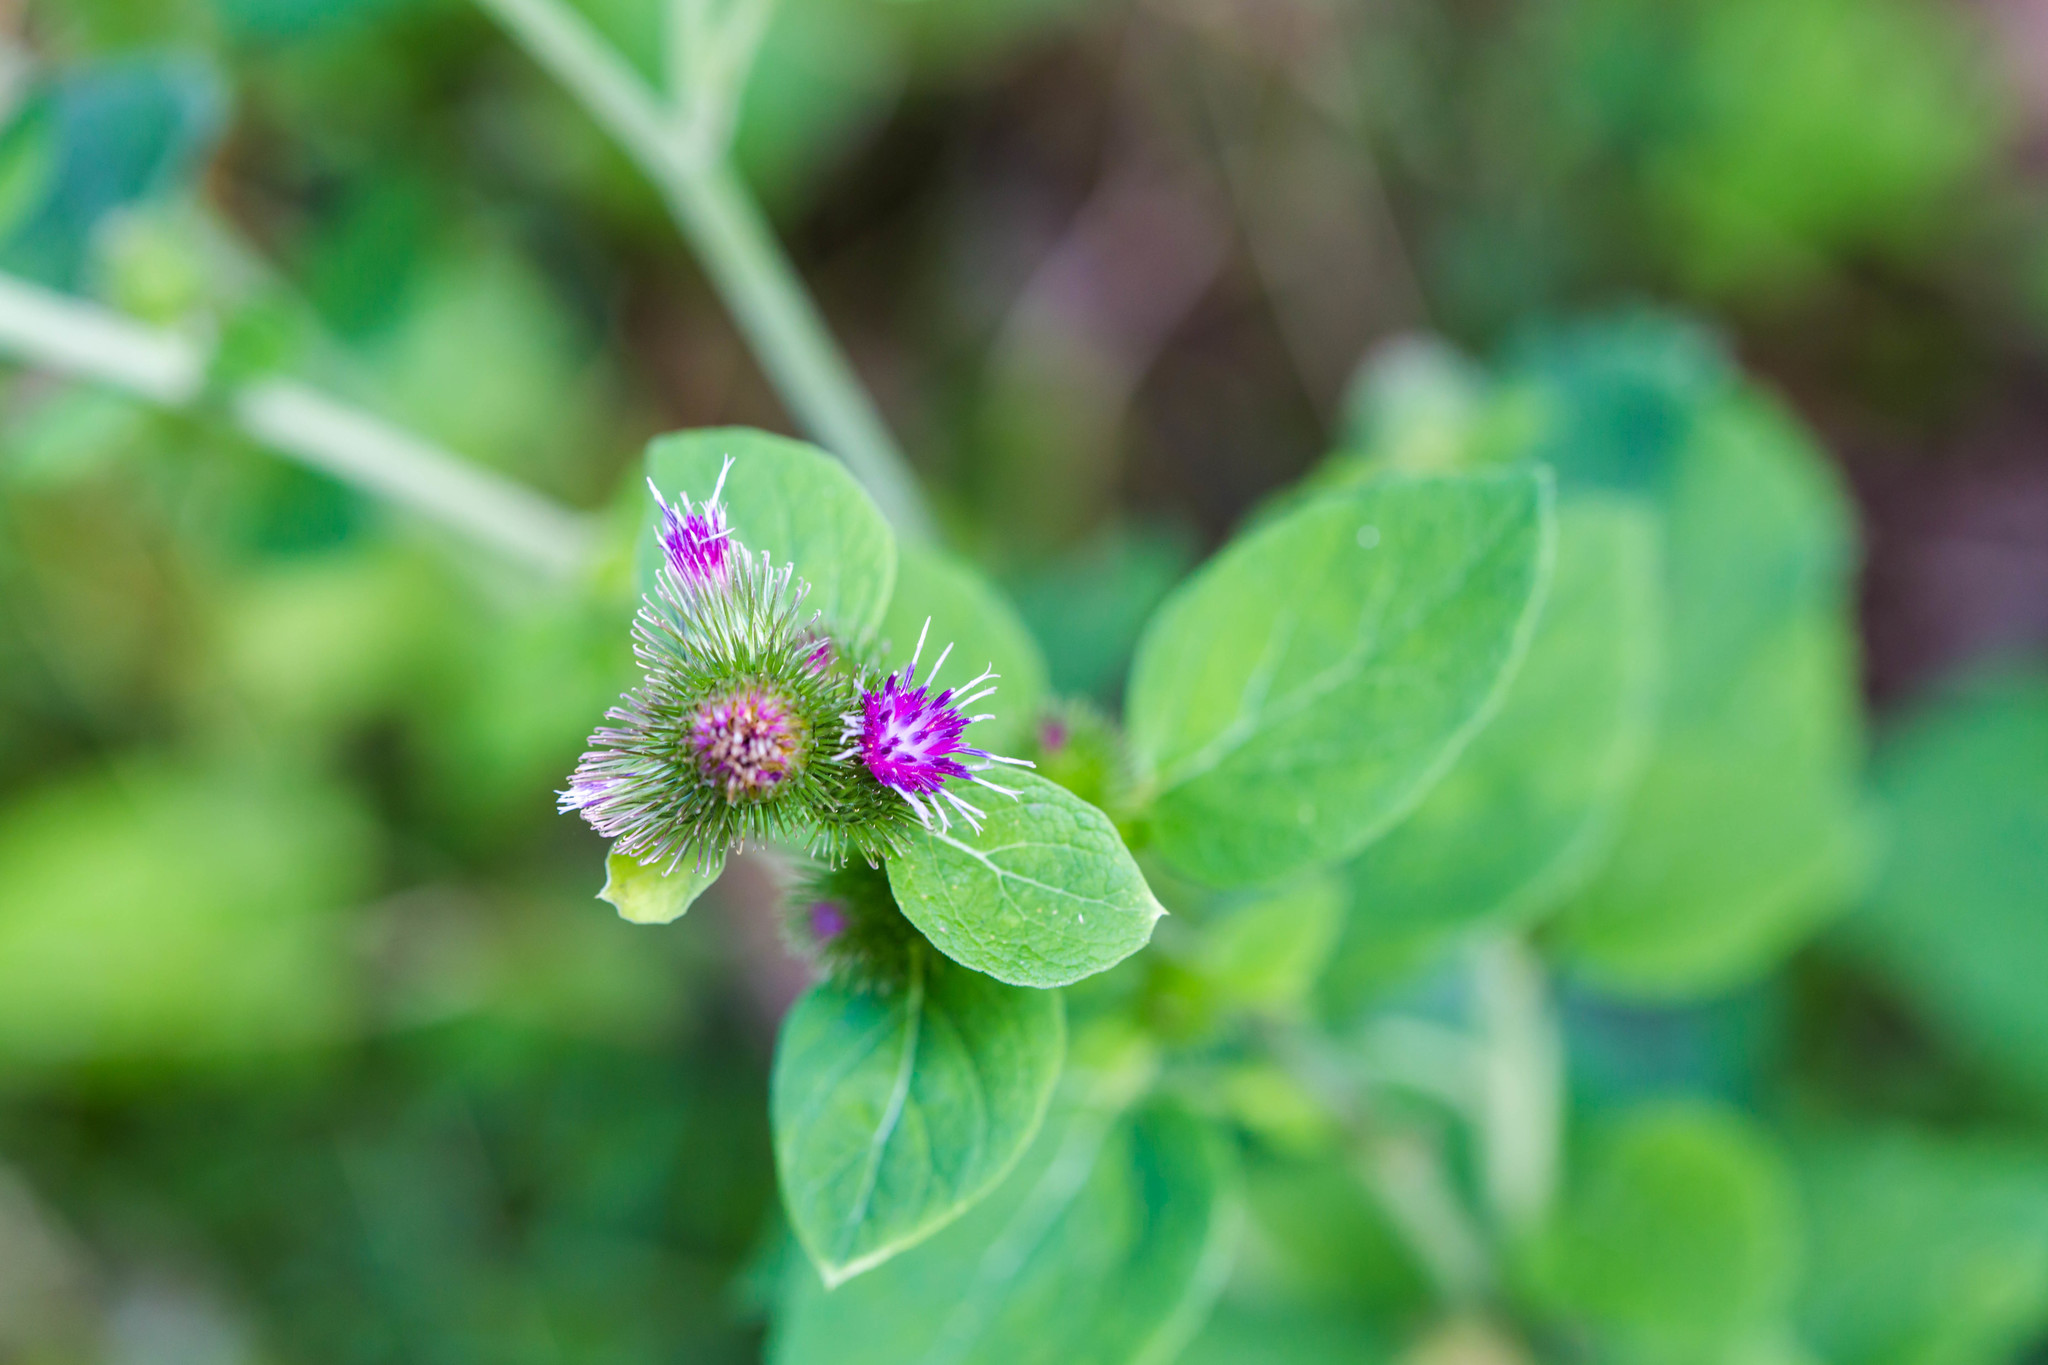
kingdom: Plantae
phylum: Tracheophyta
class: Magnoliopsida
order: Asterales
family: Asteraceae
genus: Arctium
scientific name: Arctium minus
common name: Lesser burdock
